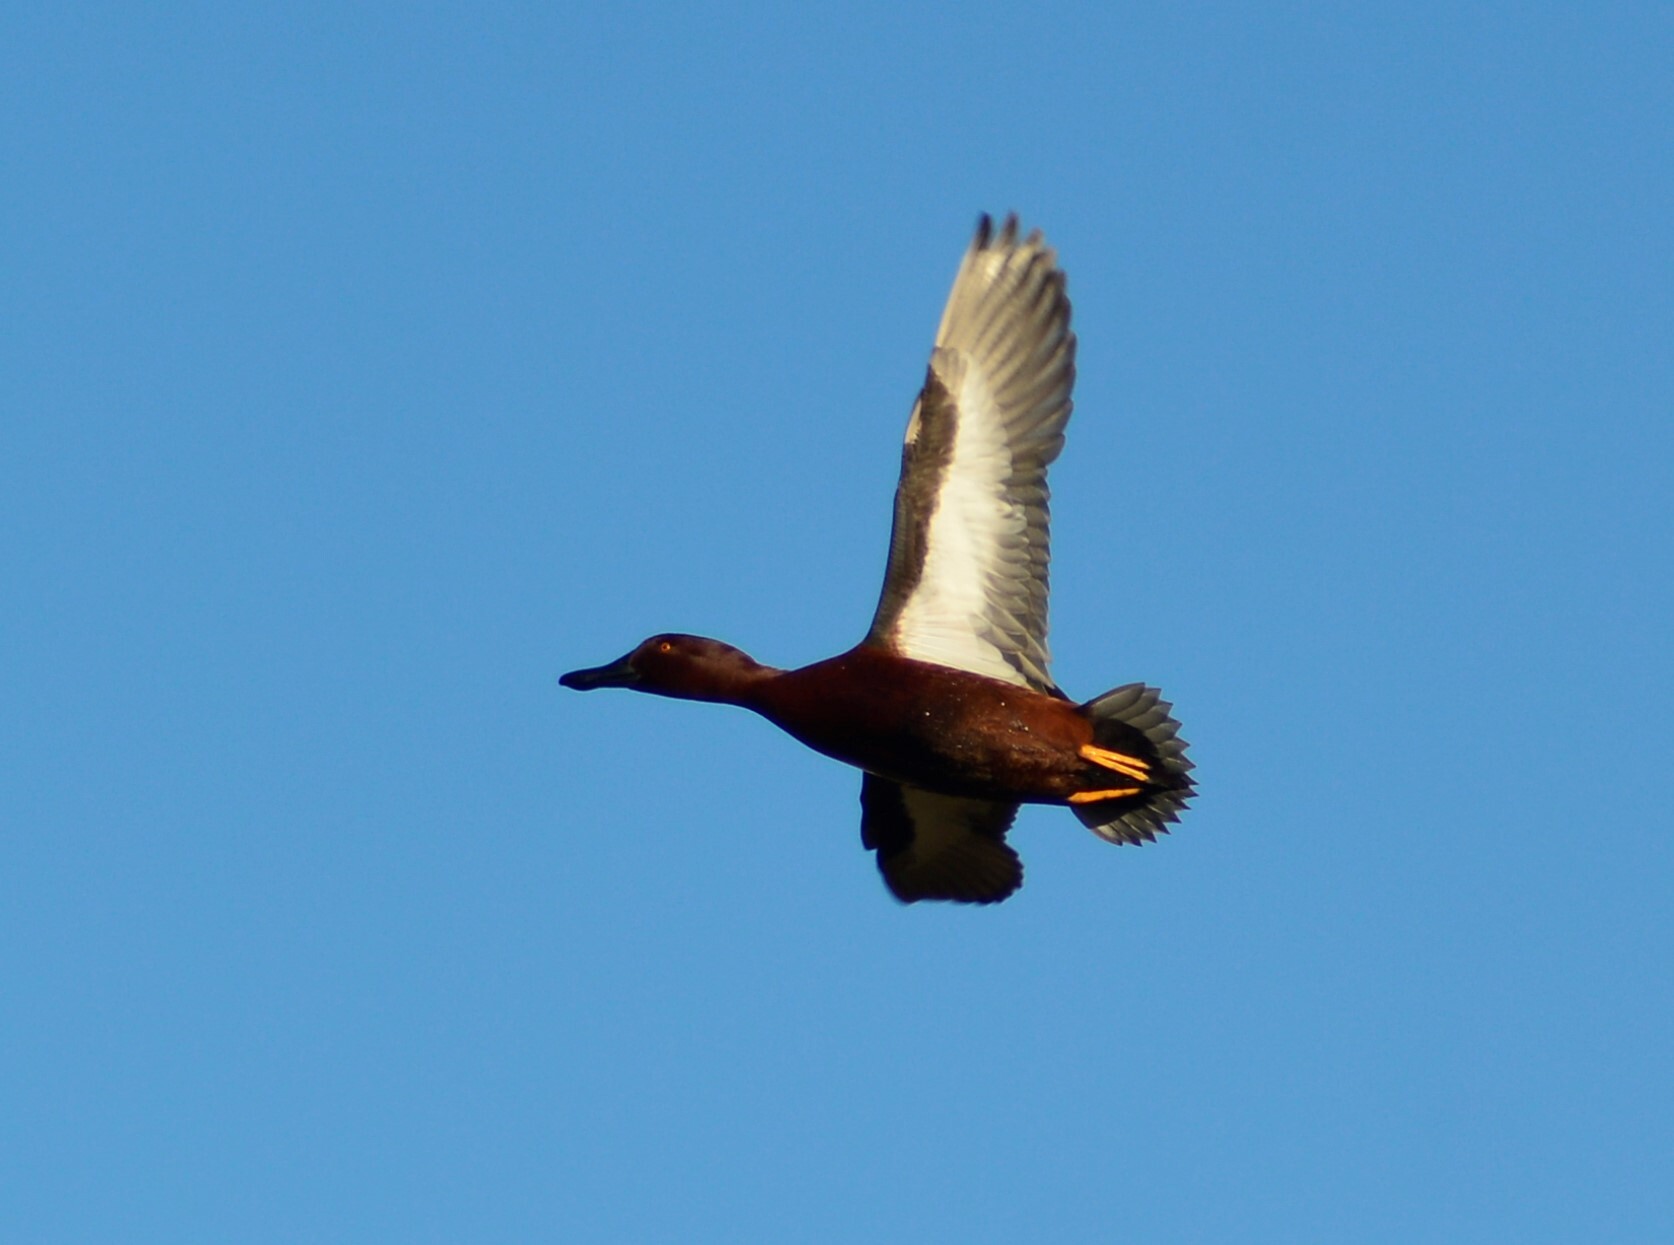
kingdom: Animalia
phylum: Chordata
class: Aves
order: Anseriformes
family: Anatidae
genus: Spatula
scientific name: Spatula cyanoptera
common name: Cinnamon teal
